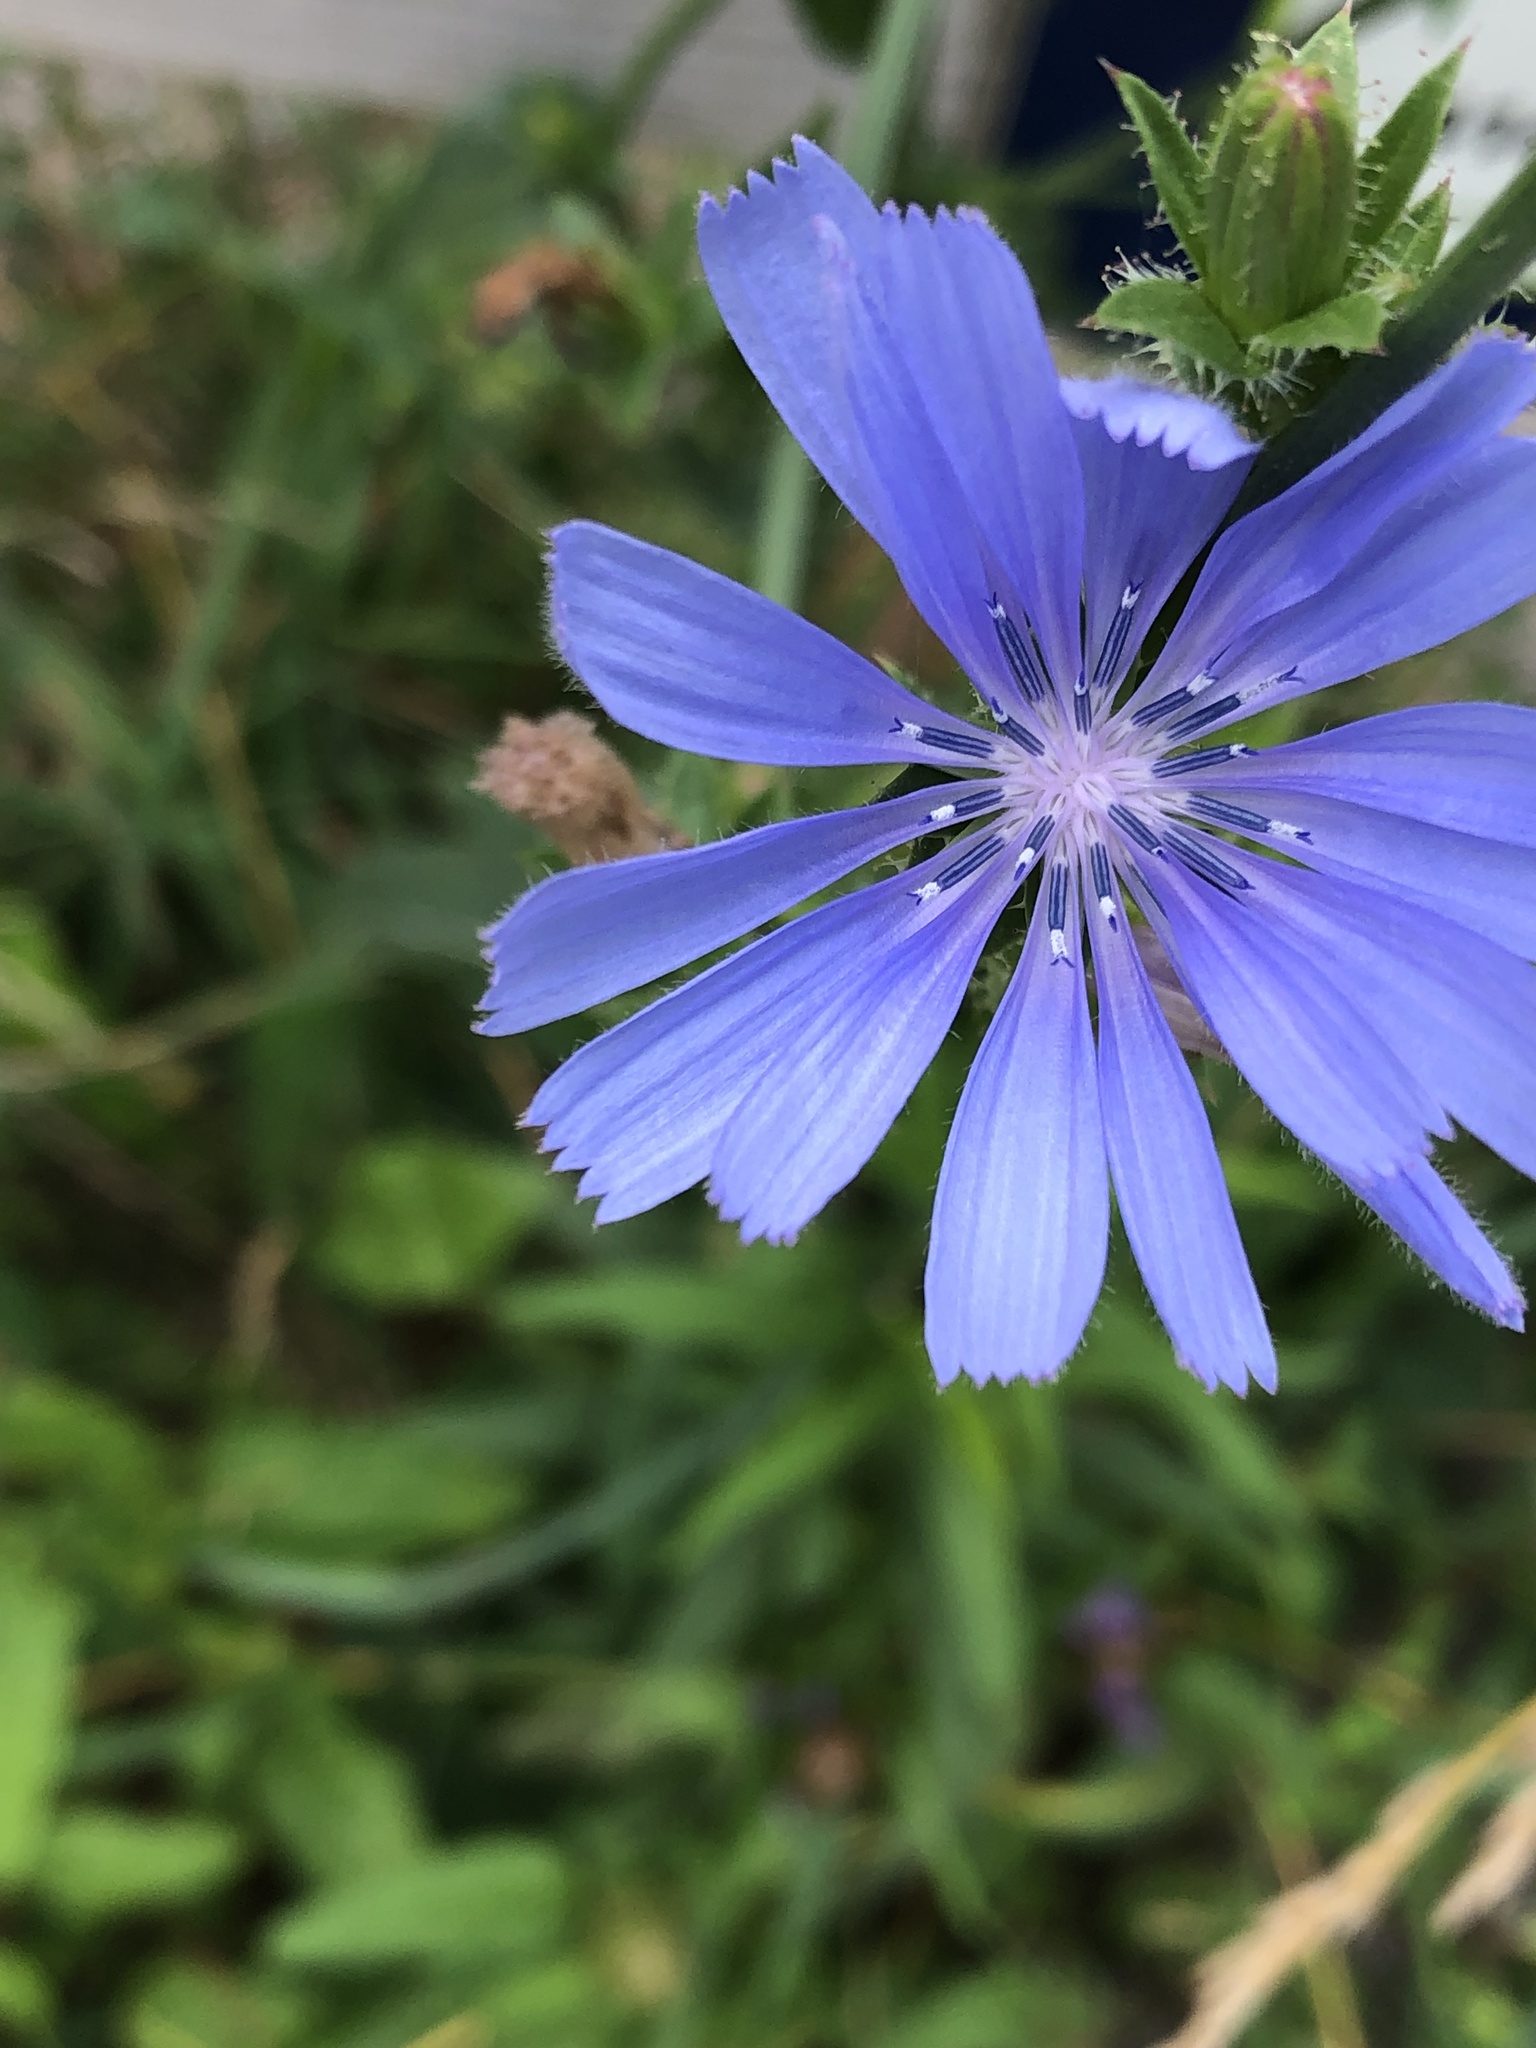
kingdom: Plantae
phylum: Tracheophyta
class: Magnoliopsida
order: Asterales
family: Asteraceae
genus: Cichorium
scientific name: Cichorium intybus
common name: Chicory
